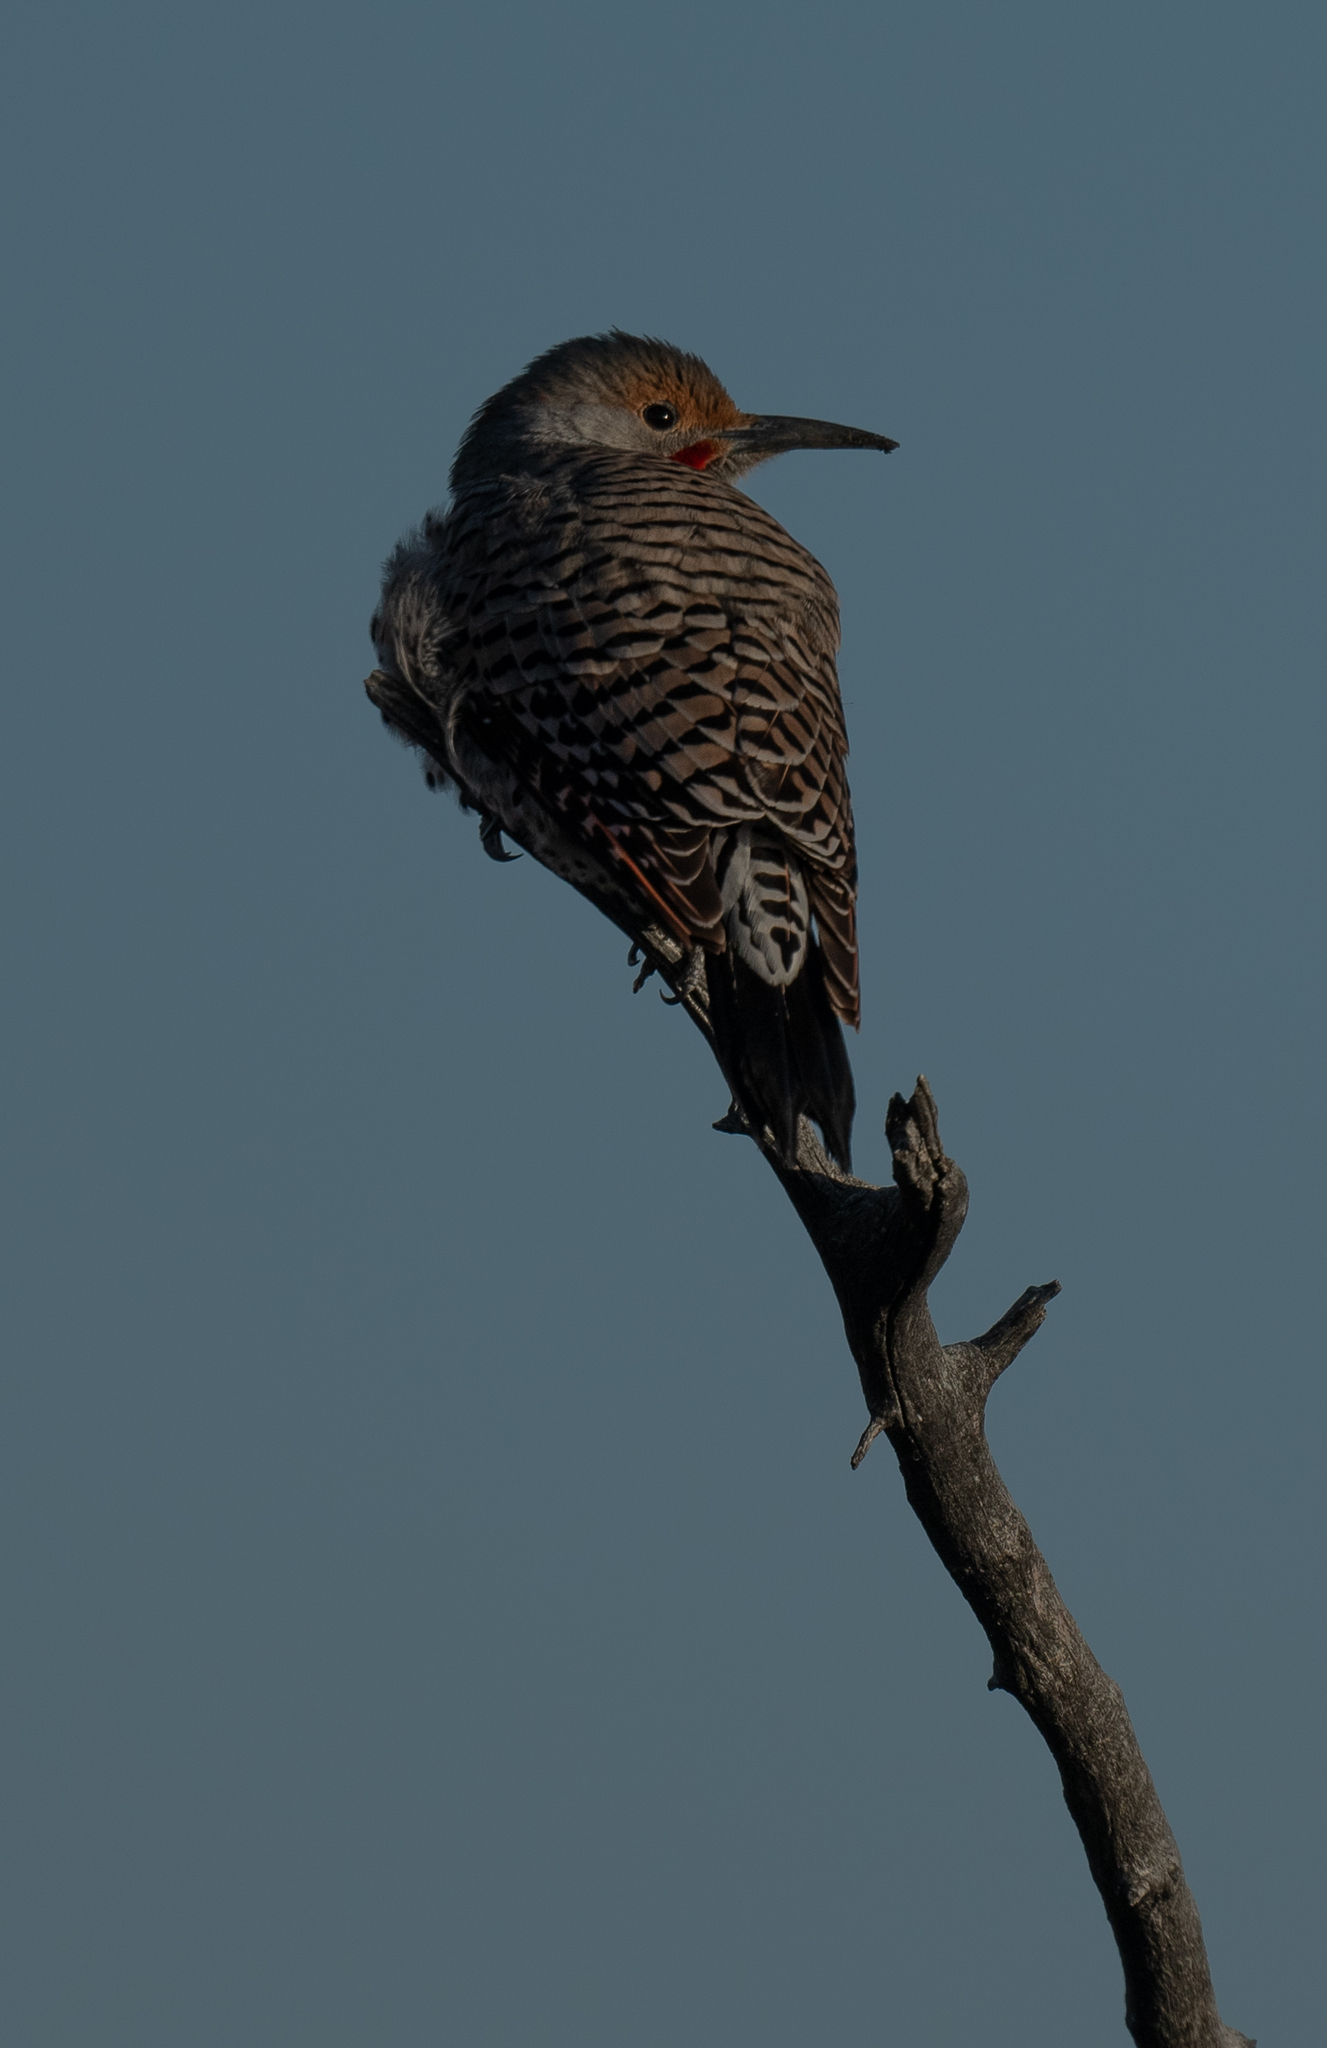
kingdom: Animalia
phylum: Chordata
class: Aves
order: Piciformes
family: Picidae
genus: Colaptes
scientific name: Colaptes auratus
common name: Northern flicker
